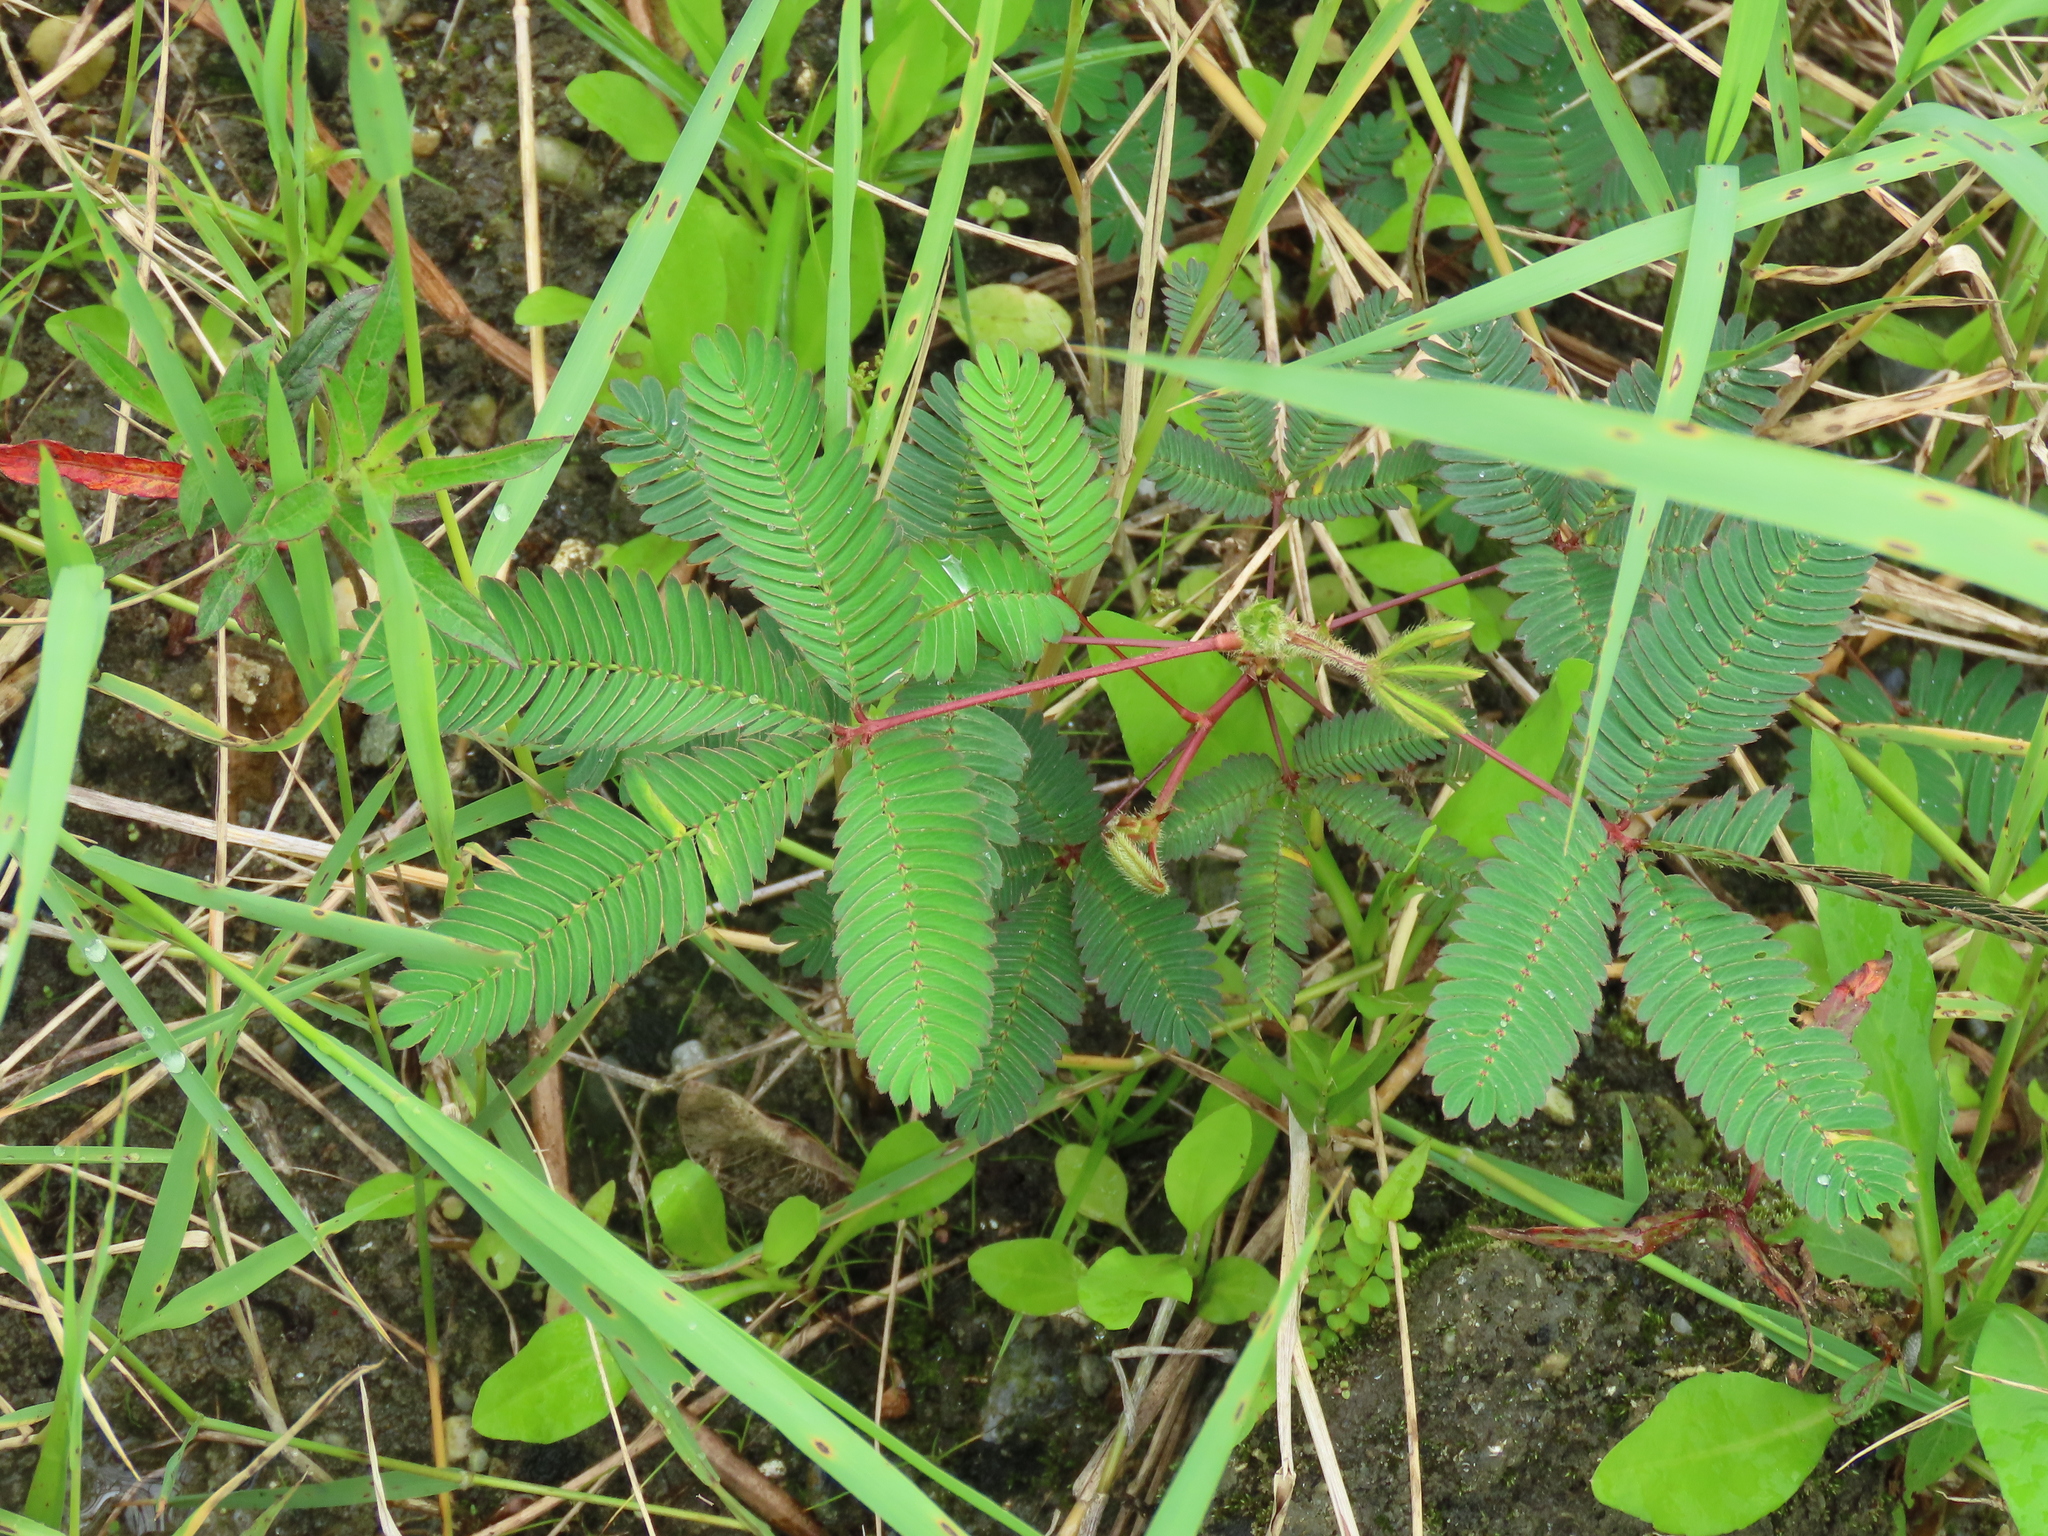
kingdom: Plantae
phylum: Tracheophyta
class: Magnoliopsida
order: Fabales
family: Fabaceae
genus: Mimosa
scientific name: Mimosa pudica
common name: Sensitive plant
